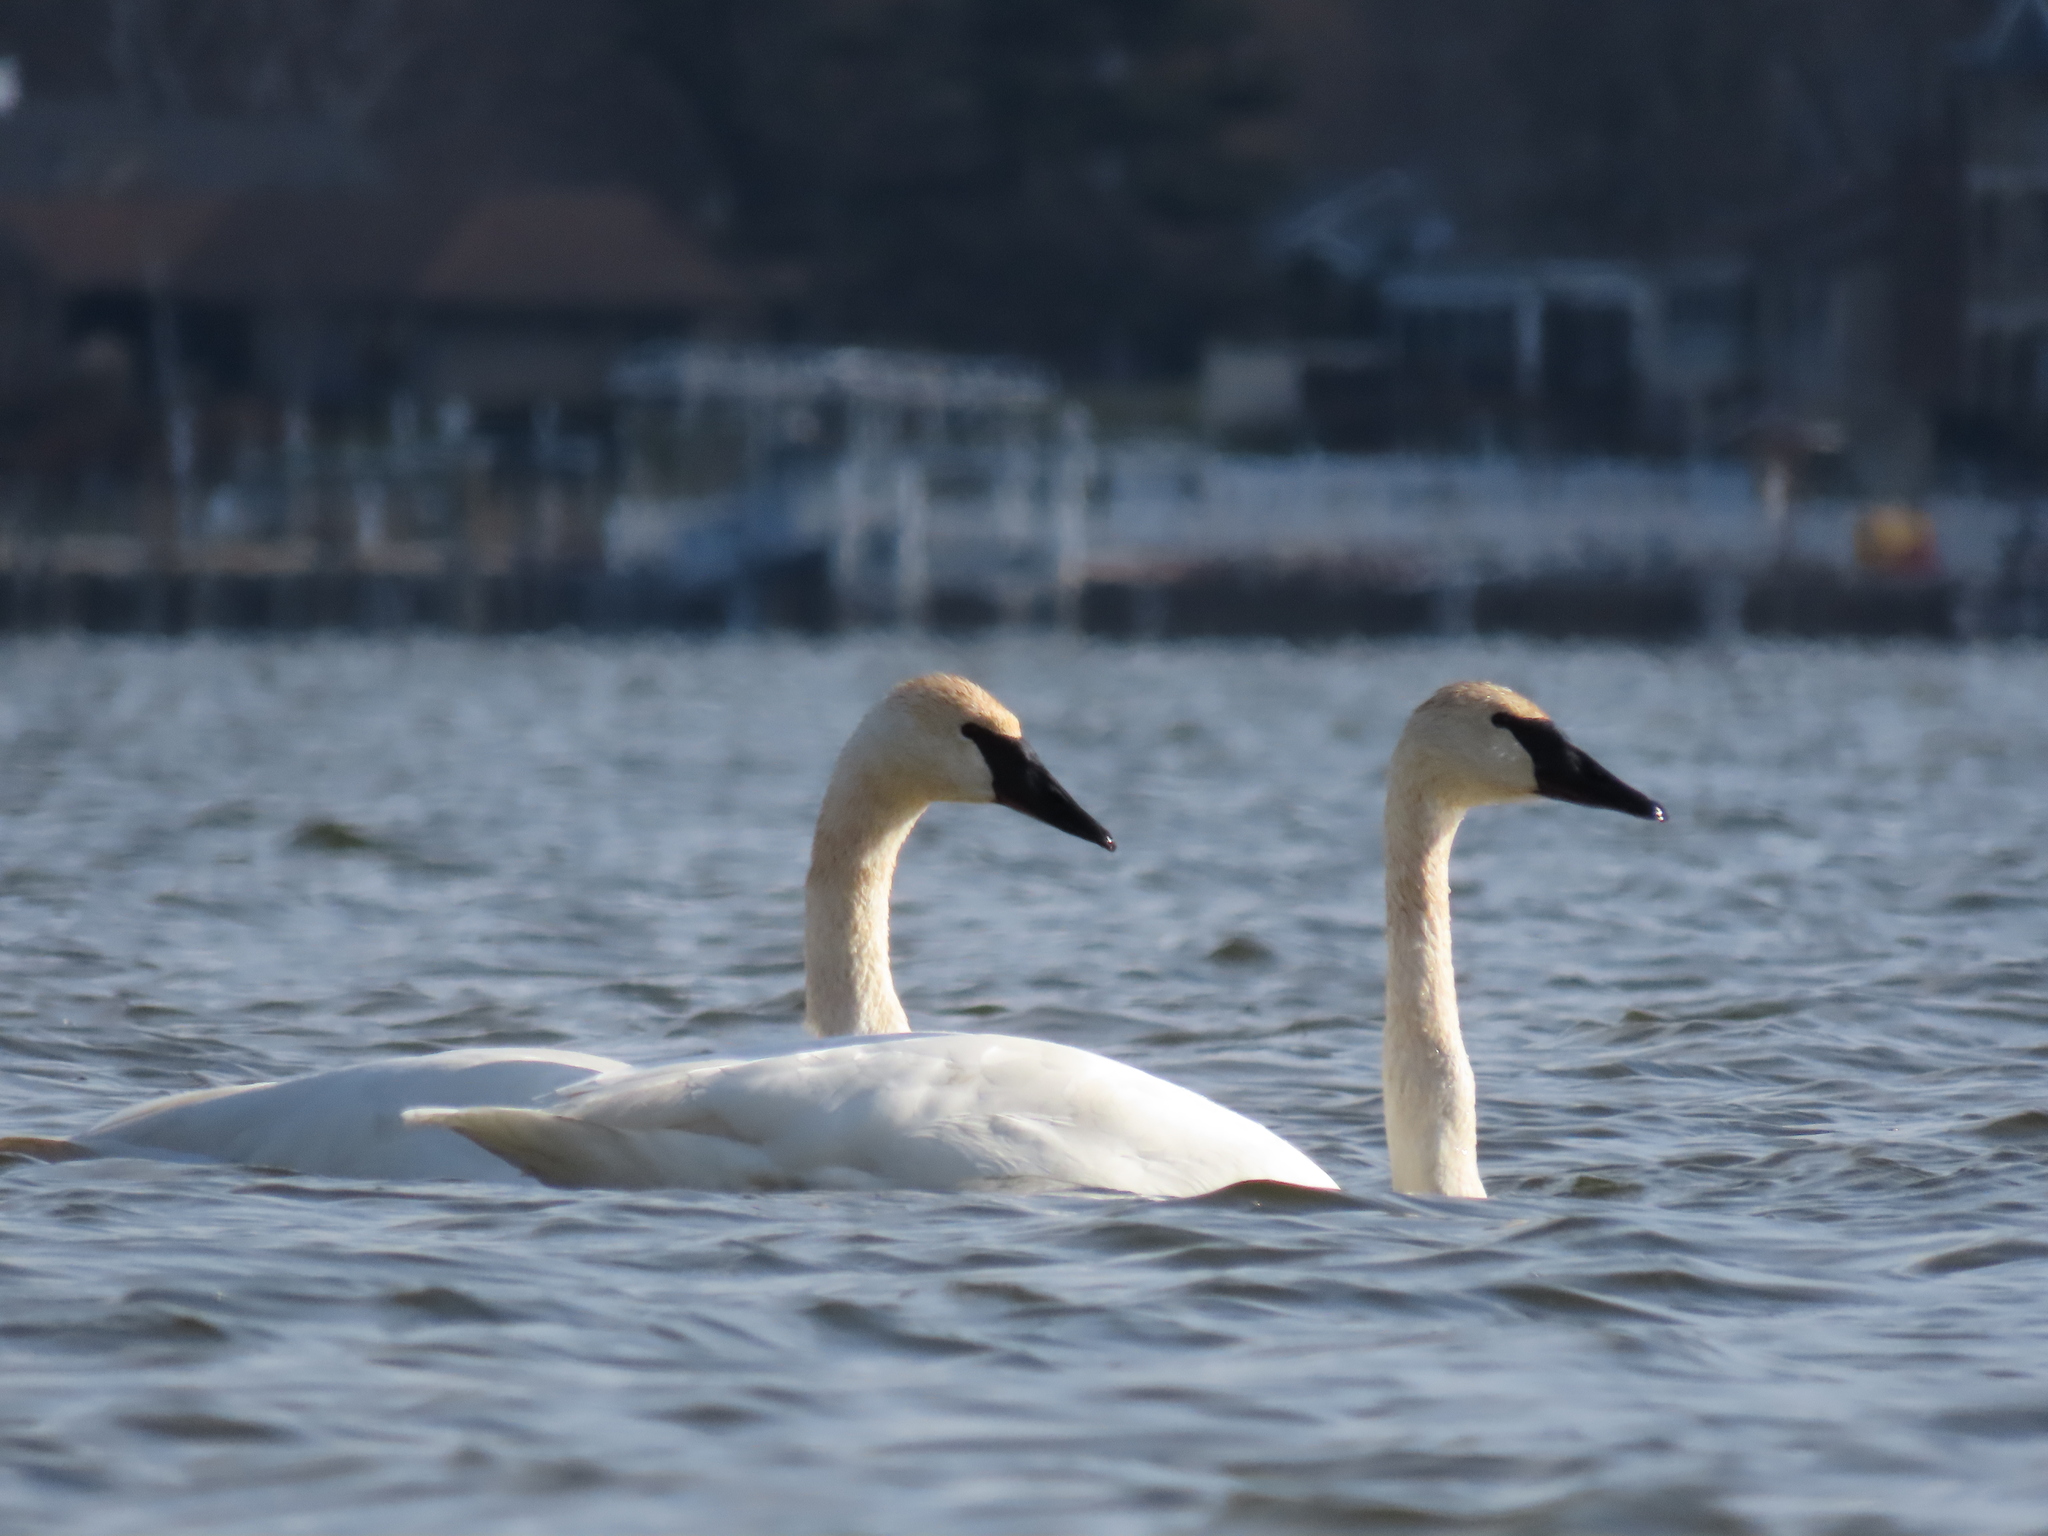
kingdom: Animalia
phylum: Chordata
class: Aves
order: Anseriformes
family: Anatidae
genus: Cygnus
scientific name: Cygnus buccinator
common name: Trumpeter swan
